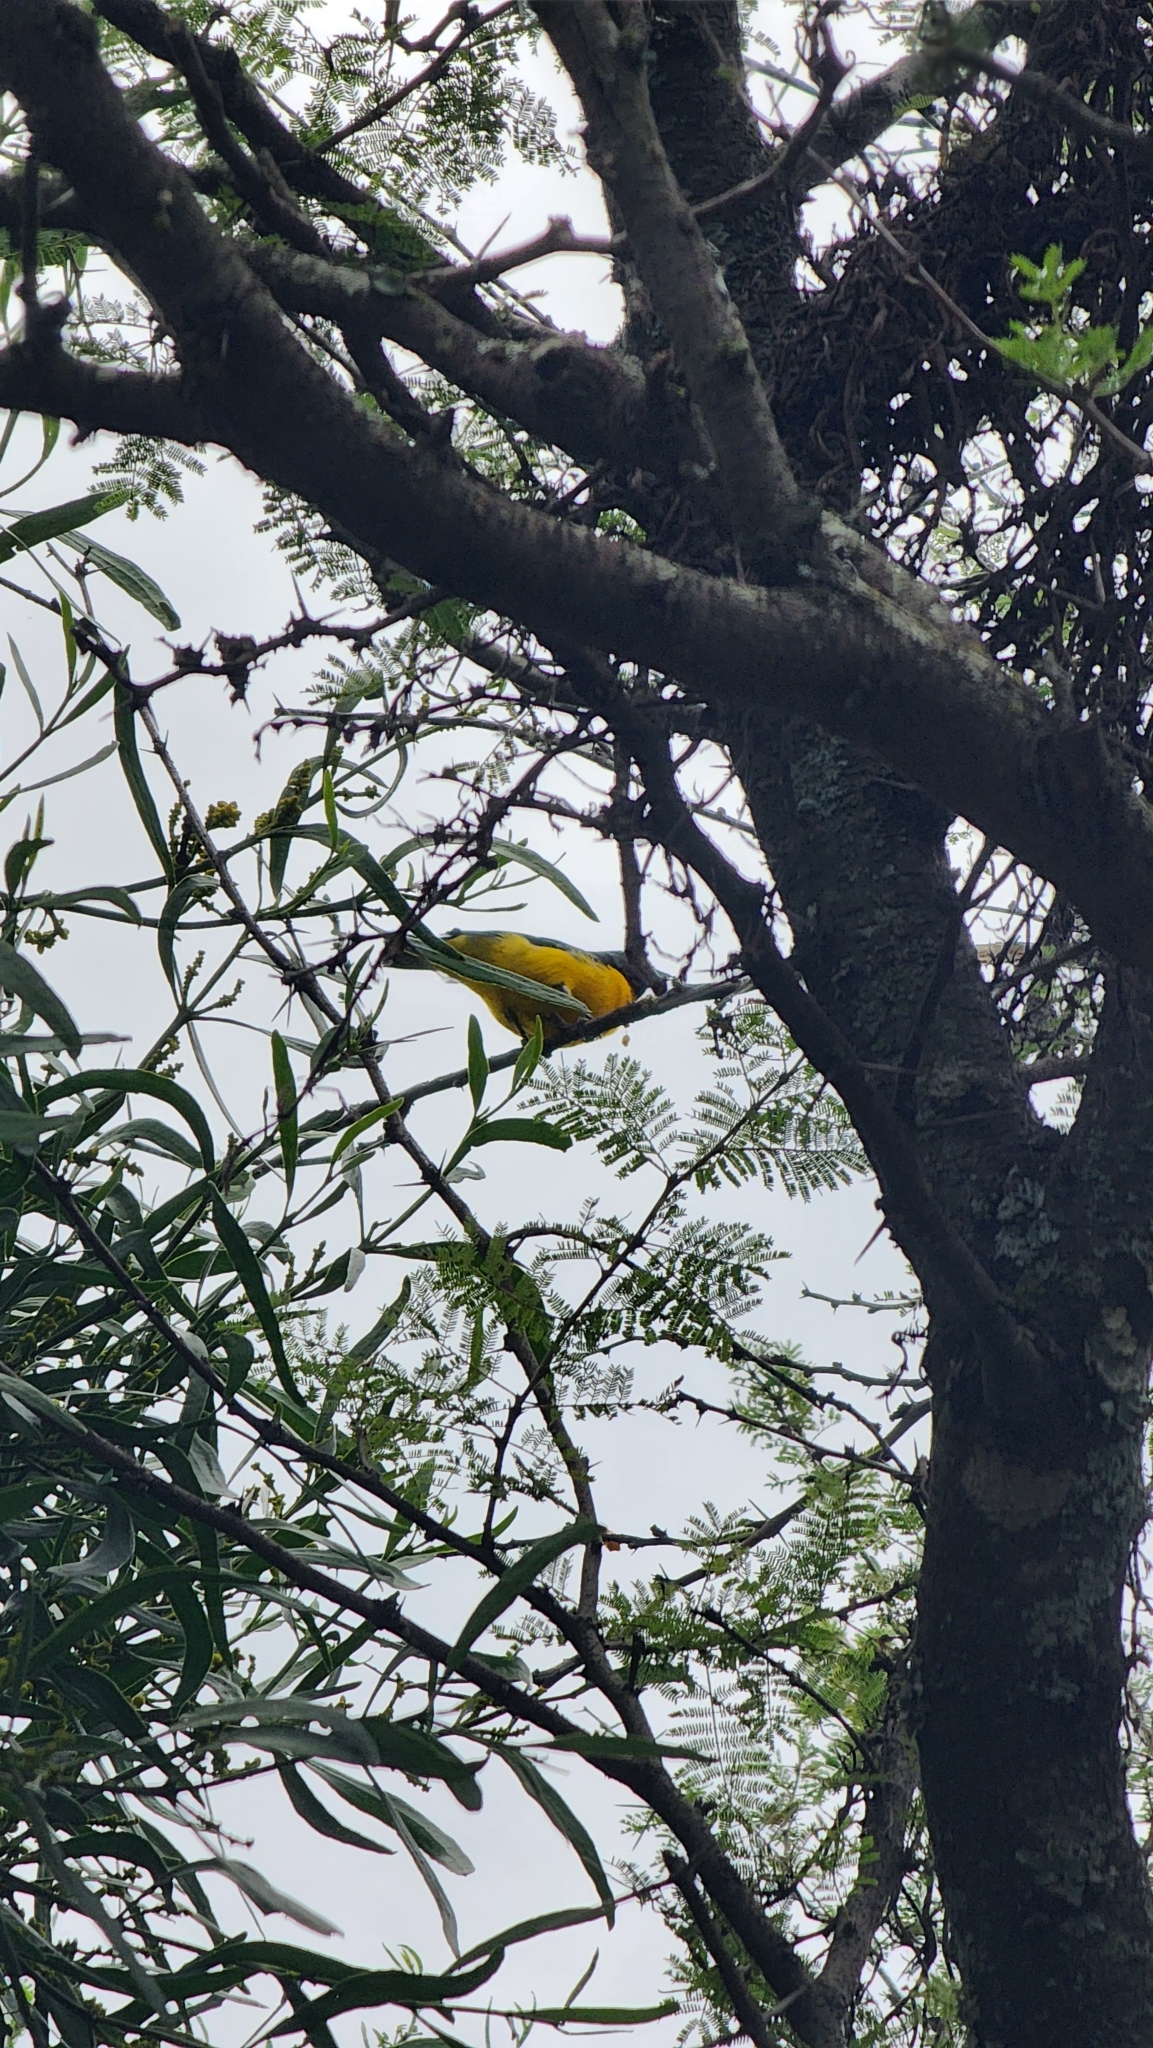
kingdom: Animalia
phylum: Chordata
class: Aves
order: Passeriformes
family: Fringillidae
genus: Euphonia
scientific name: Euphonia chlorotica
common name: Purple-throated euphonia
